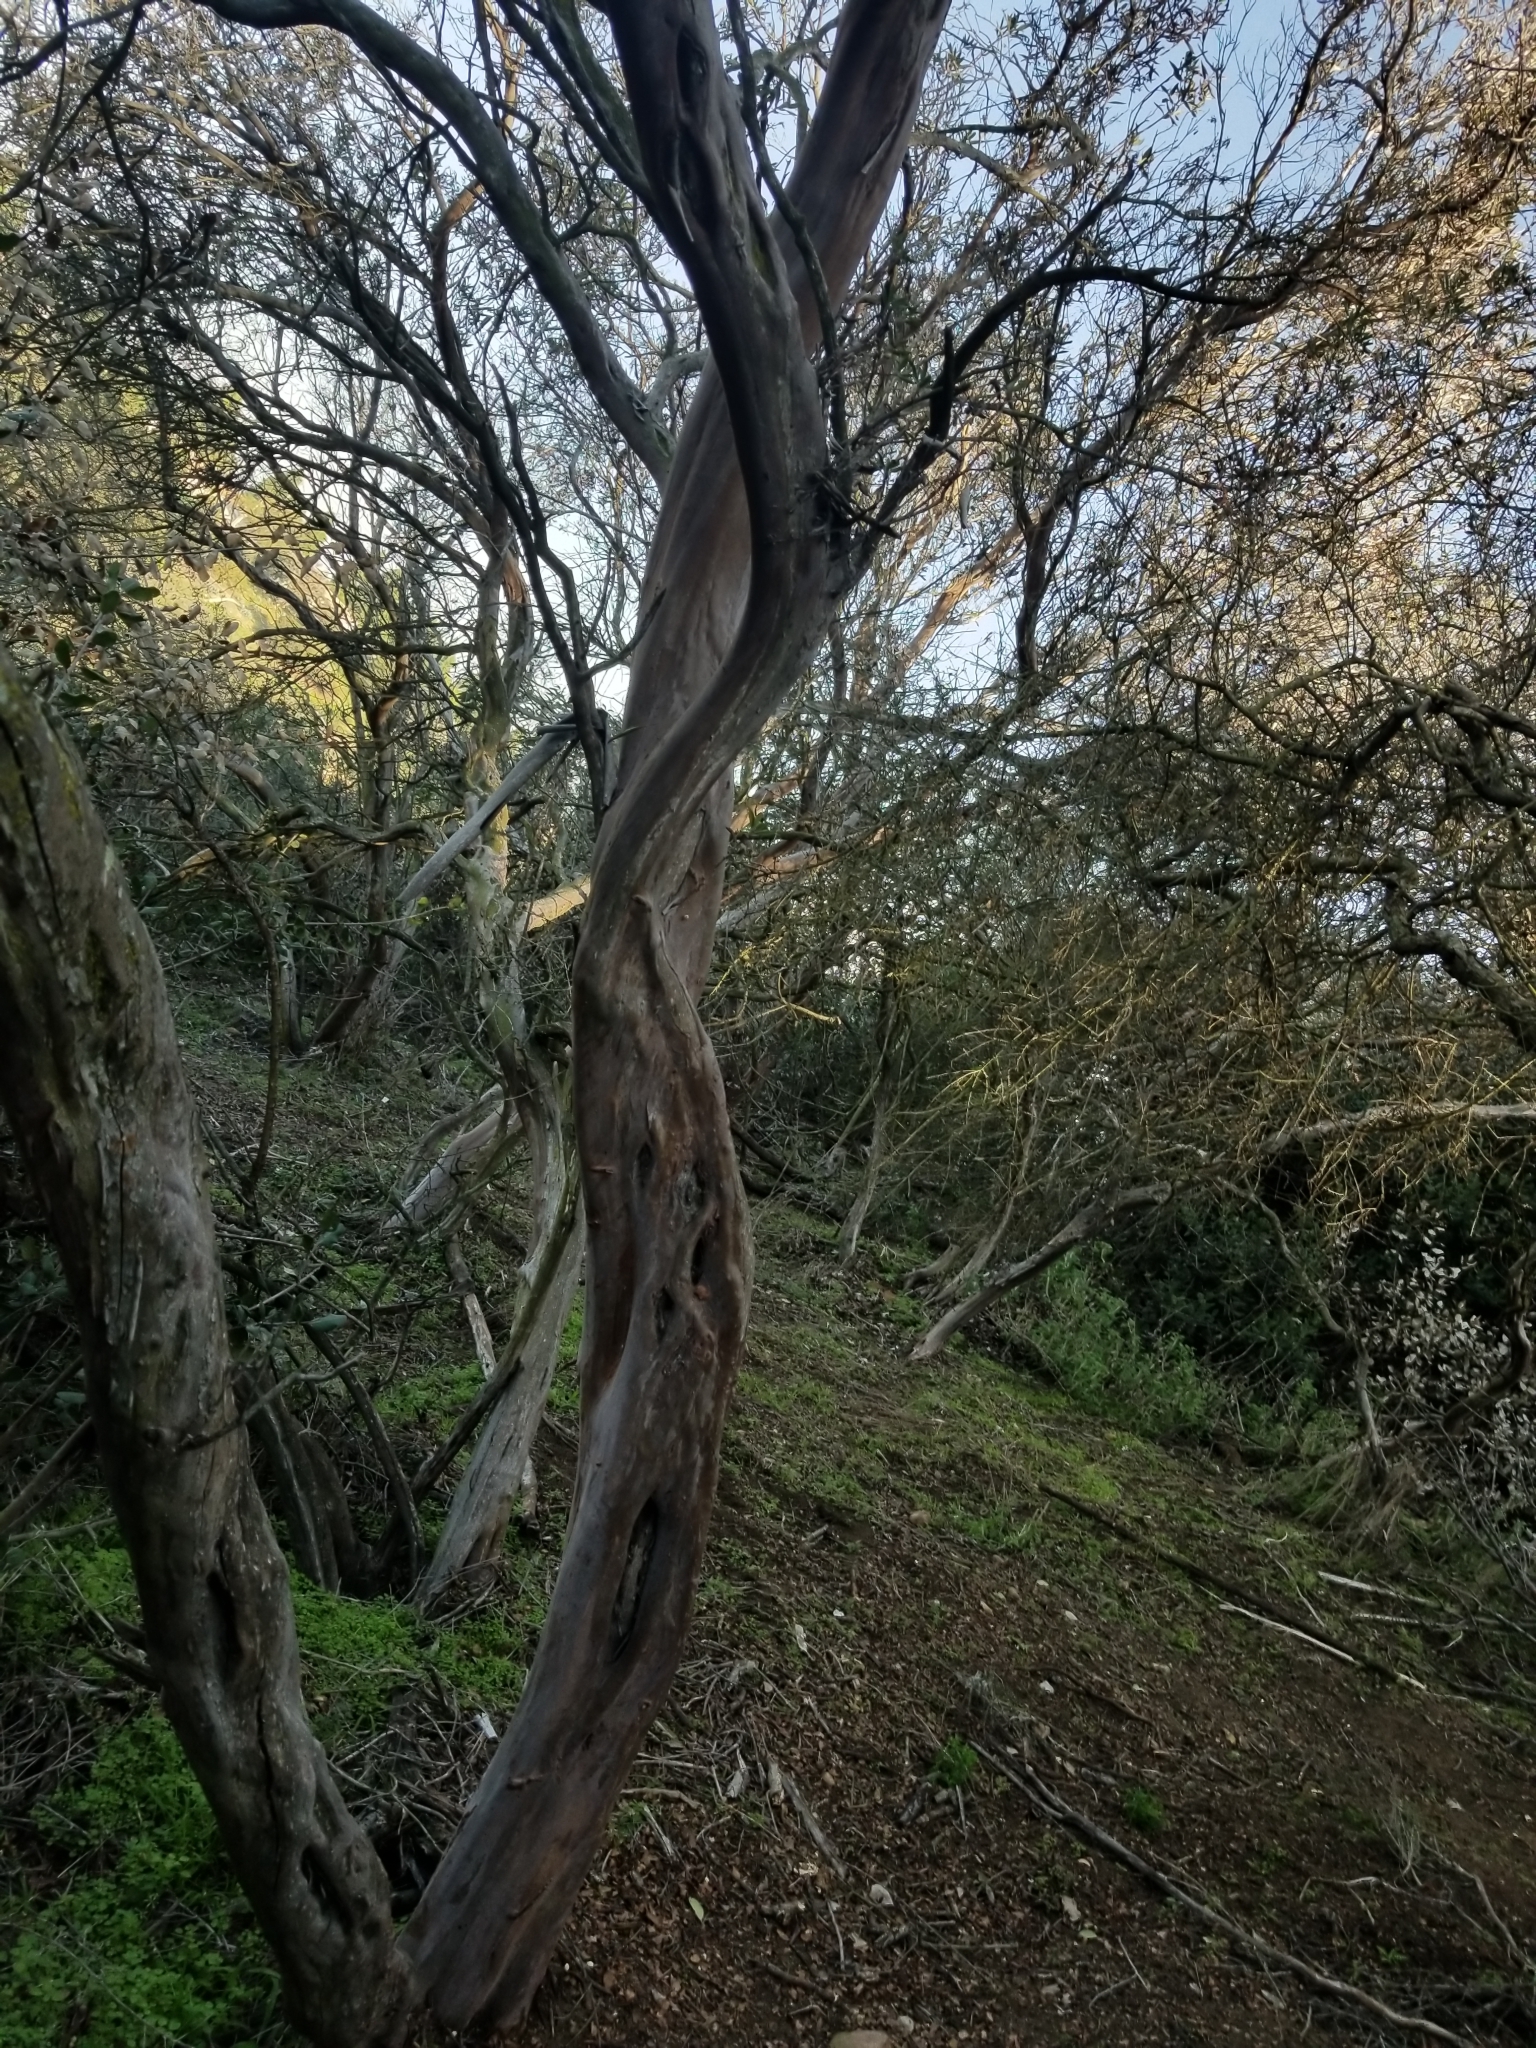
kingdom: Plantae
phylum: Tracheophyta
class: Magnoliopsida
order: Ericales
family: Ericaceae
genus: Arctostaphylos
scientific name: Arctostaphylos bicolor
